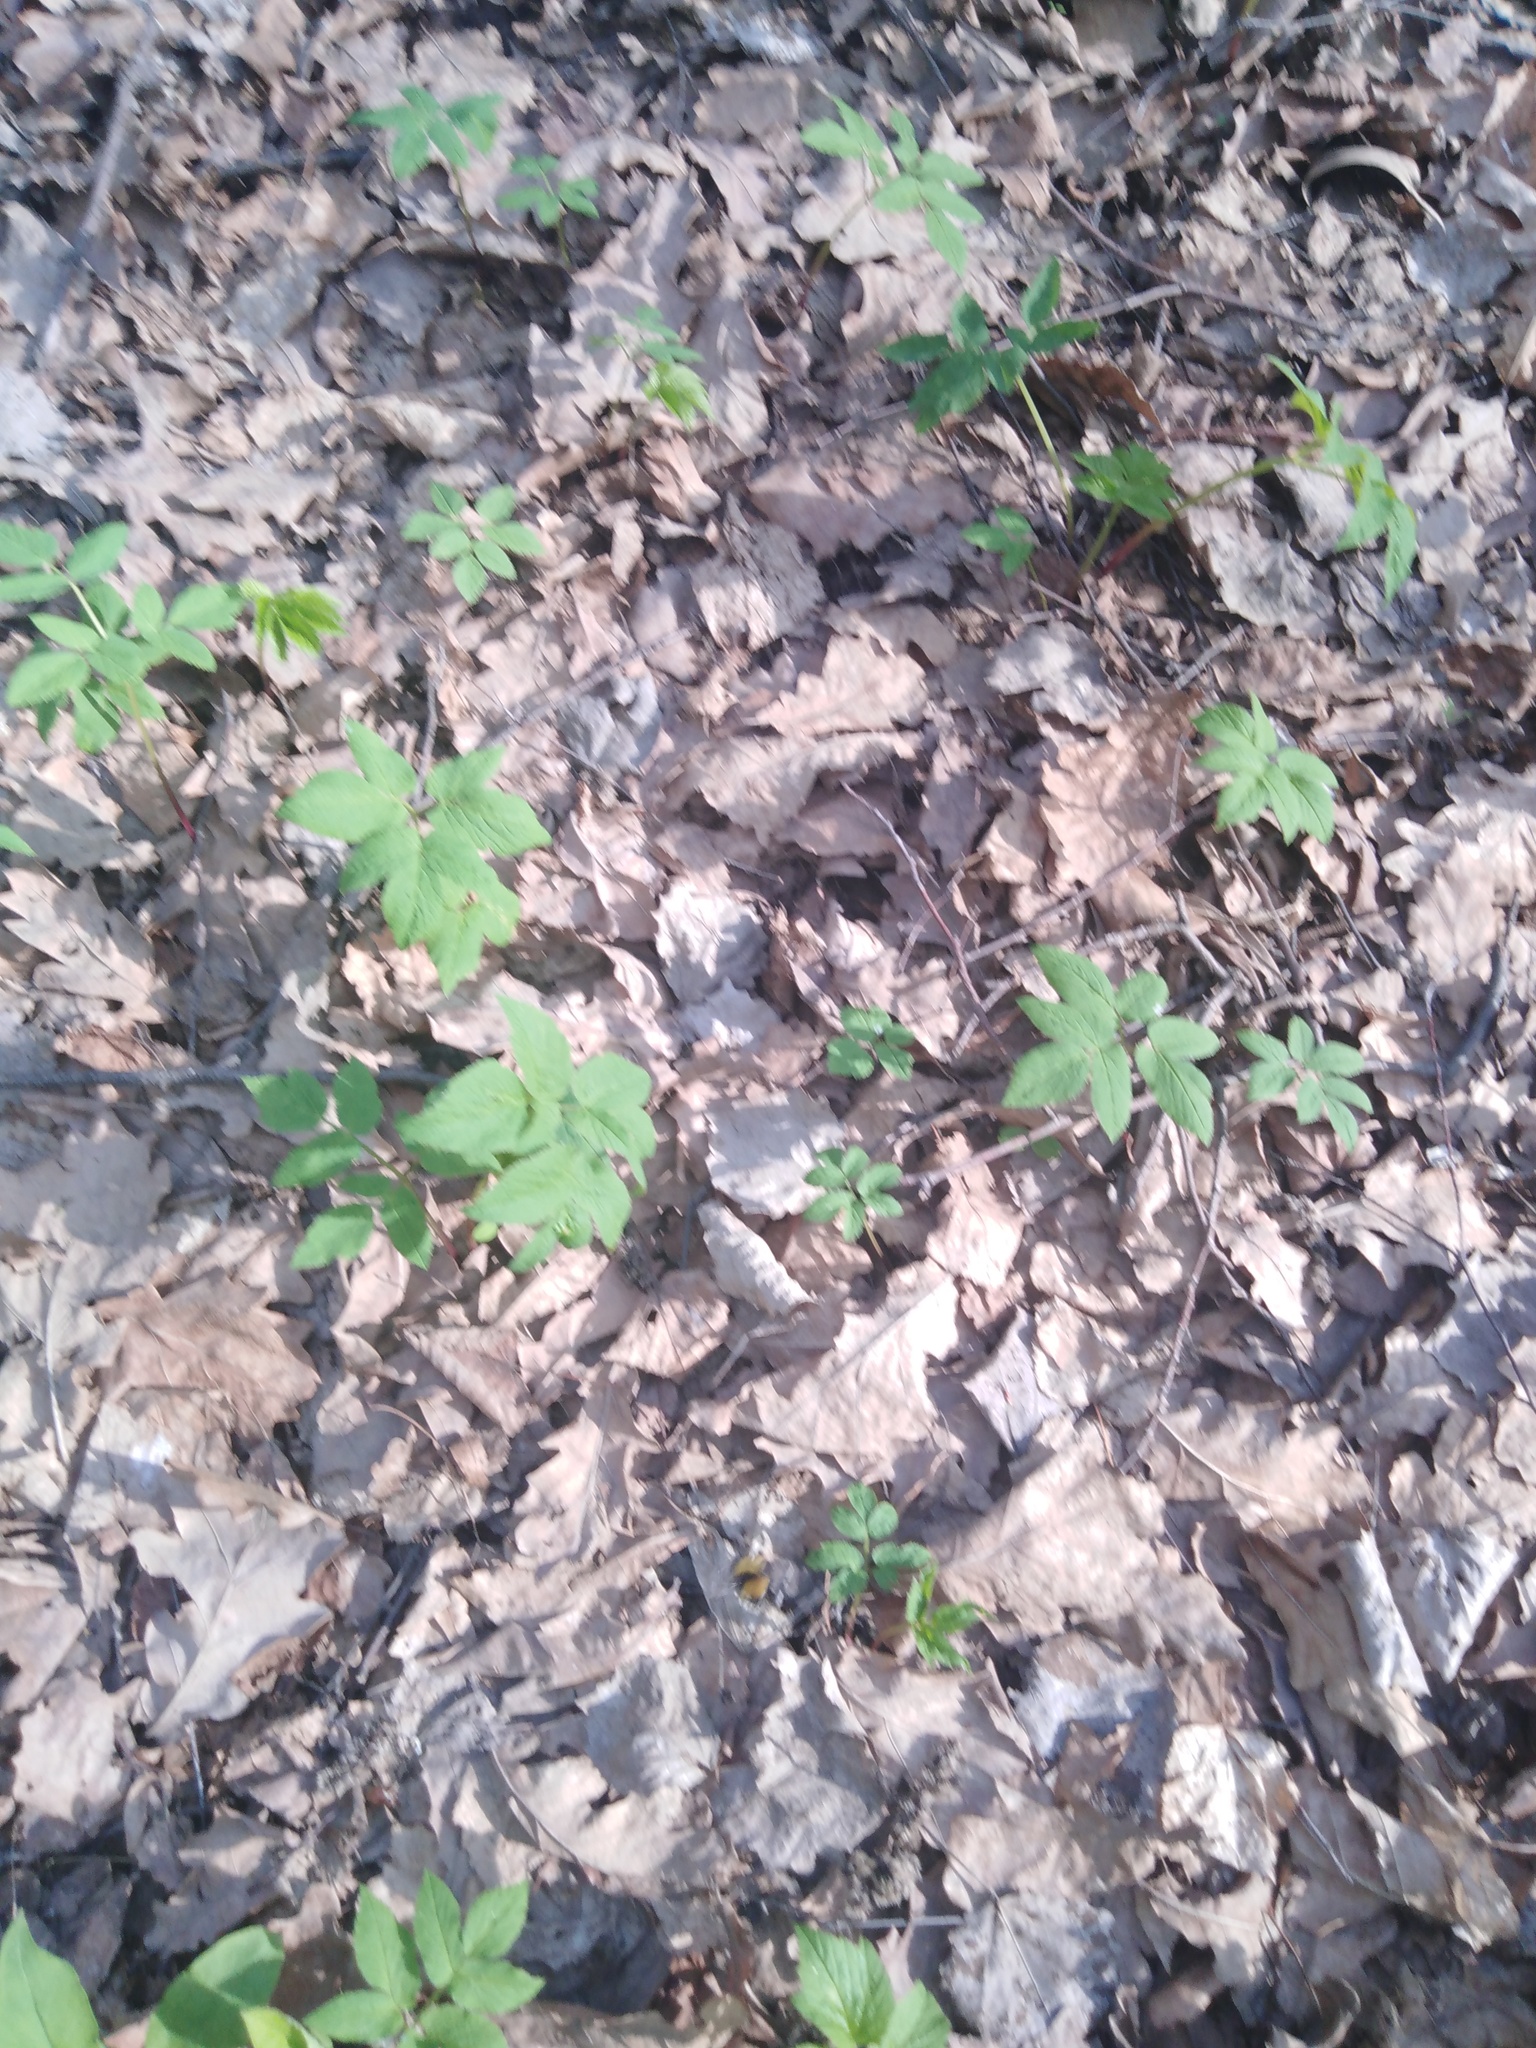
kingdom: Plantae
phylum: Tracheophyta
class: Magnoliopsida
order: Apiales
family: Apiaceae
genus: Aegopodium
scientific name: Aegopodium podagraria
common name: Ground-elder
